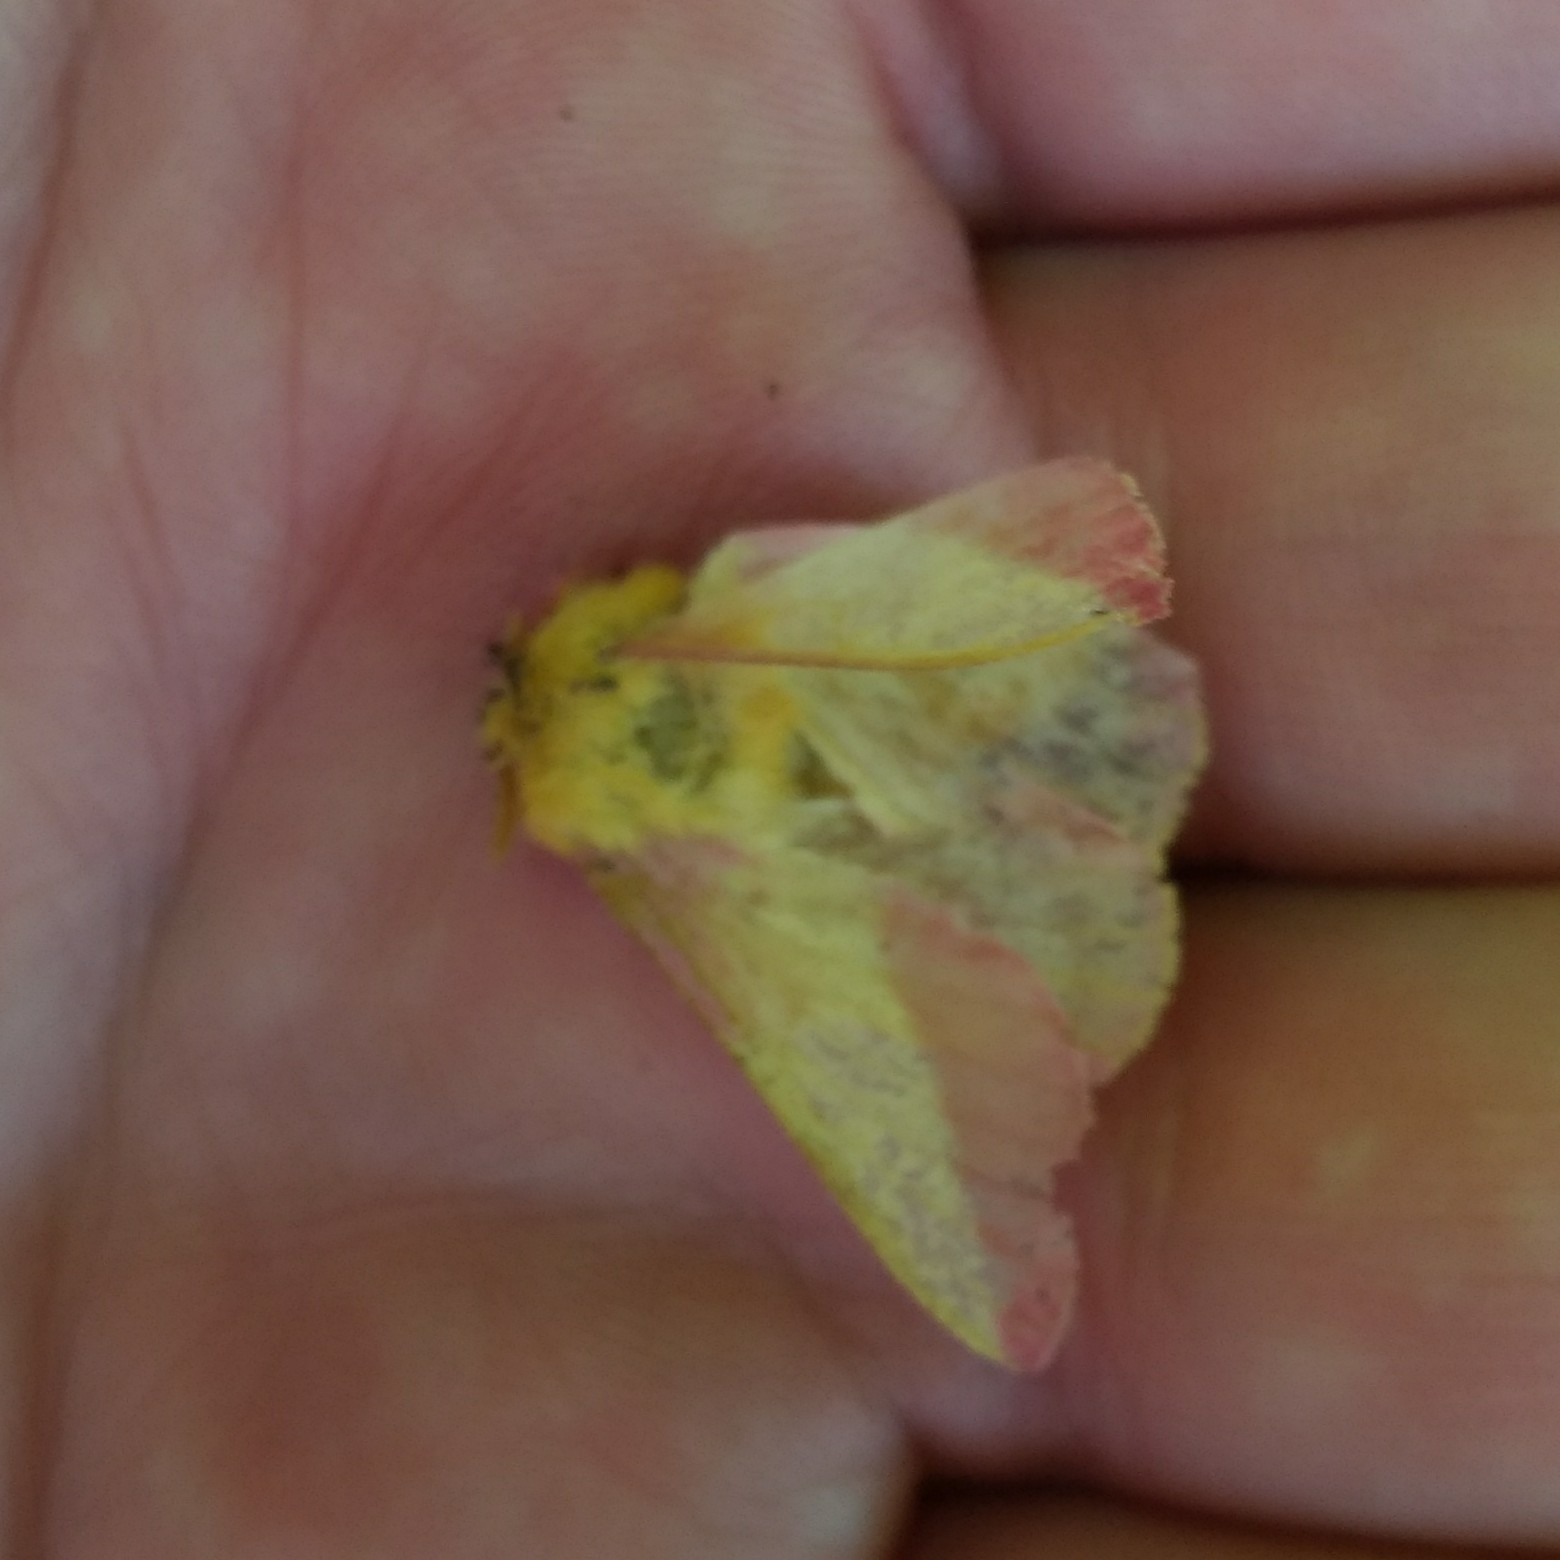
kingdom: Animalia
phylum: Arthropoda
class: Insecta
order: Lepidoptera
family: Saturniidae
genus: Dryocampa
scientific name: Dryocampa rubicunda
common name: Rosy maple moth
